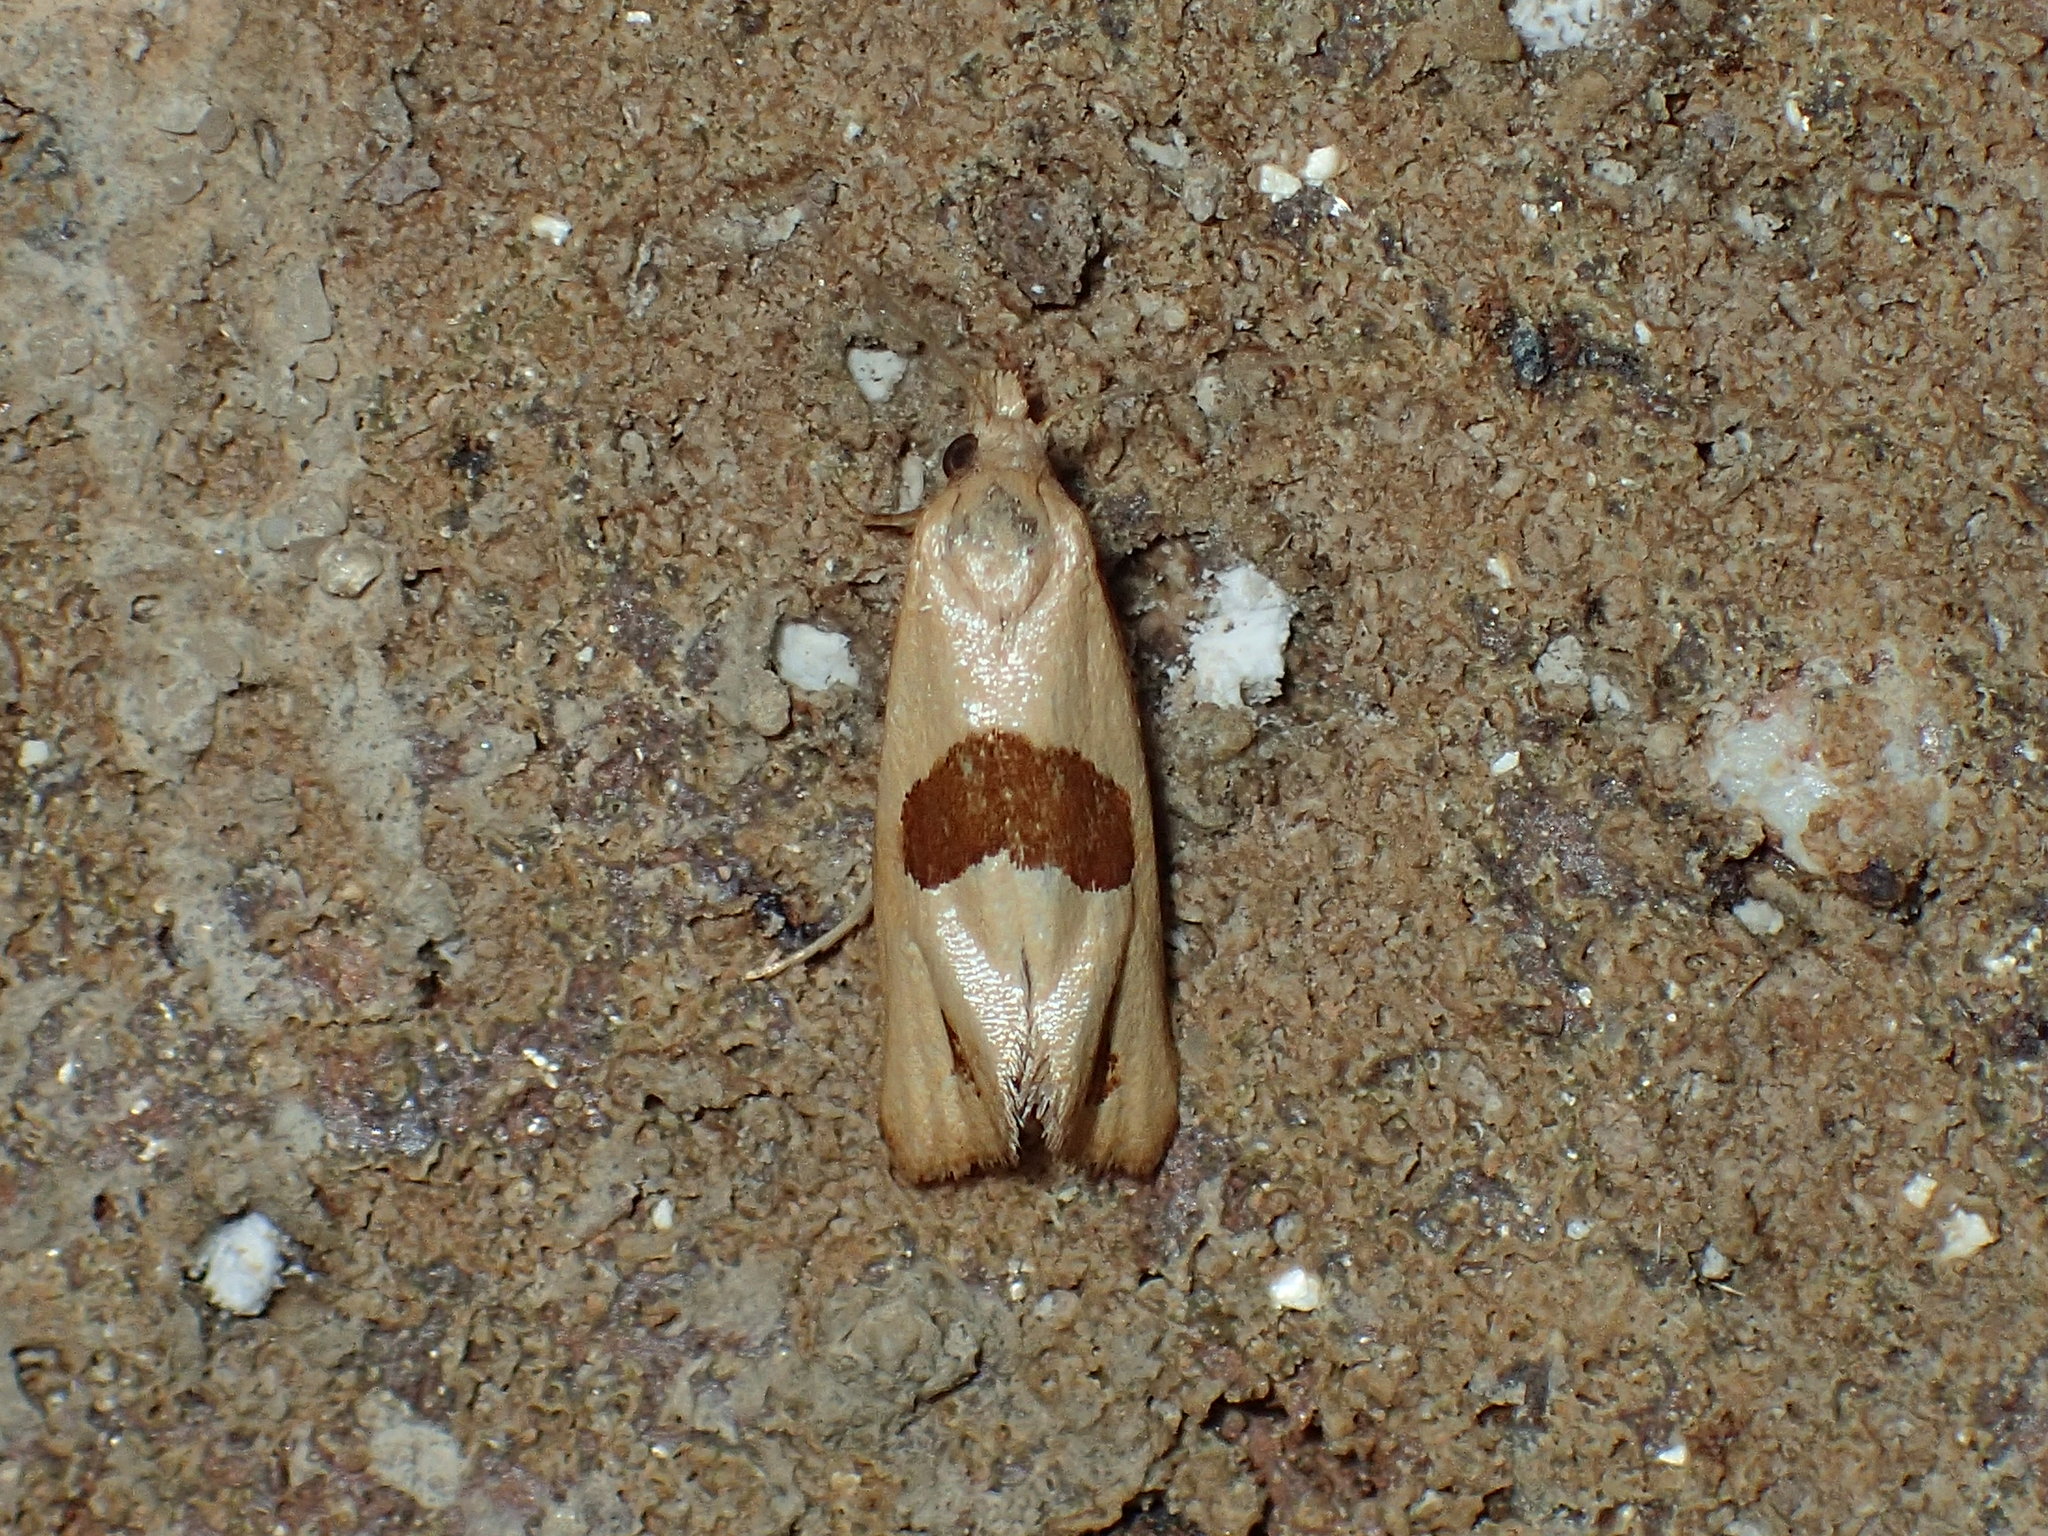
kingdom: Animalia
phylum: Arthropoda
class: Insecta
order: Lepidoptera
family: Tortricidae
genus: Eugnosta
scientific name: Eugnosta sartana
